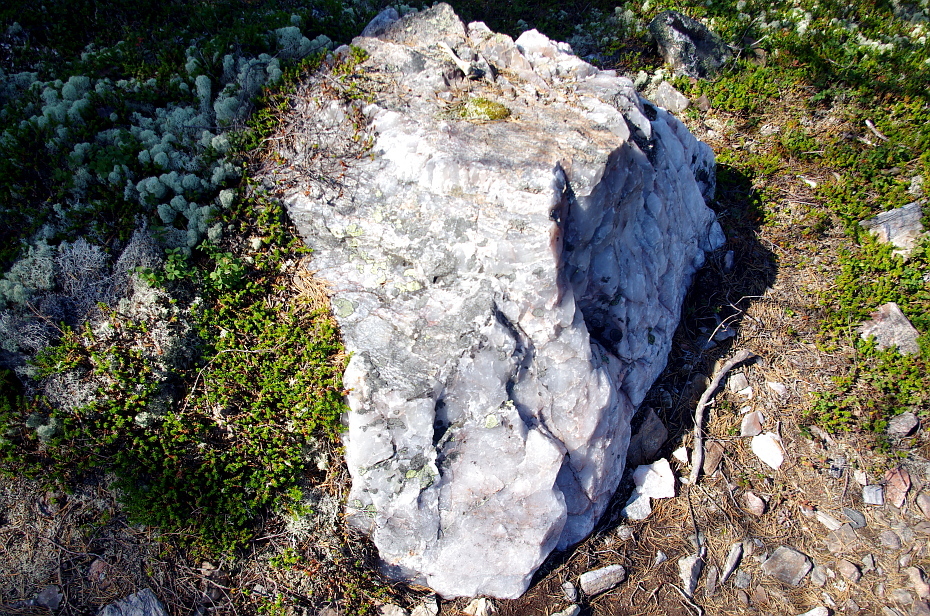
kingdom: Plantae
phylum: Tracheophyta
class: Magnoliopsida
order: Ericales
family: Ericaceae
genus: Empetrum
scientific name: Empetrum nigrum
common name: Black crowberry
